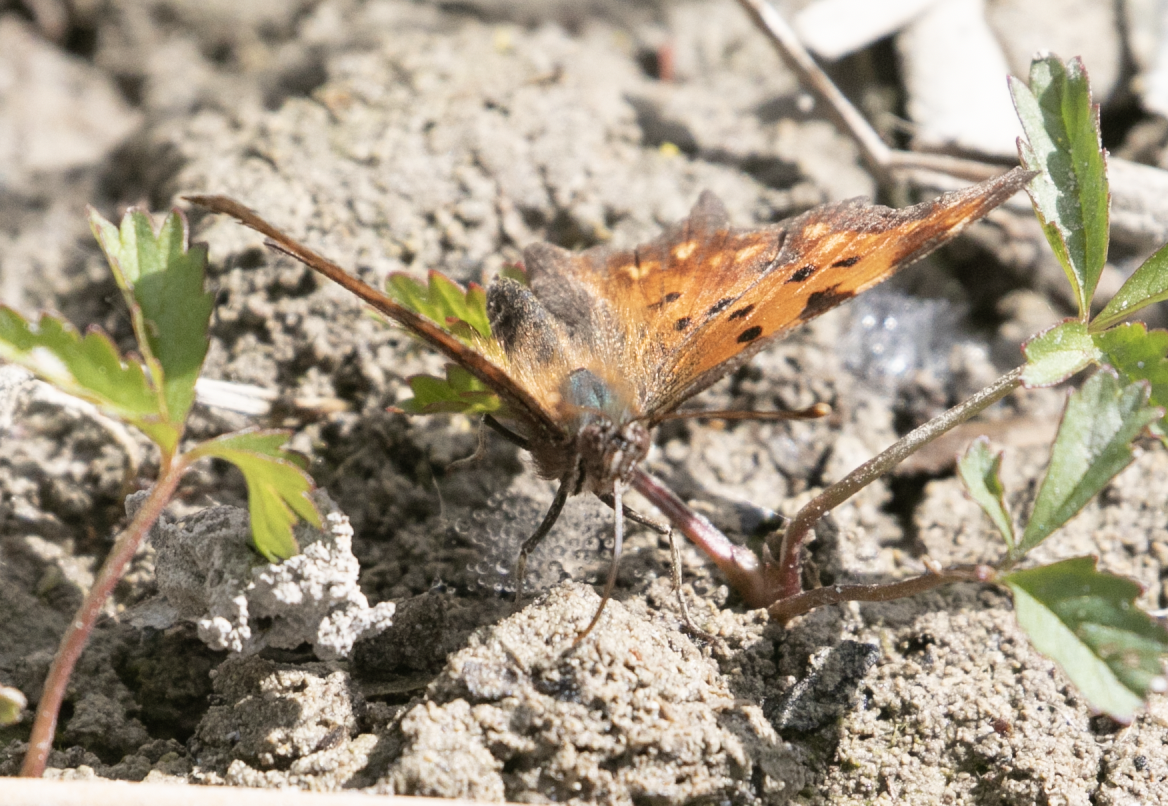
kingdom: Animalia
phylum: Arthropoda
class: Insecta
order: Lepidoptera
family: Nymphalidae
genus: Polygonia
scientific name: Polygonia c-album
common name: Comma
